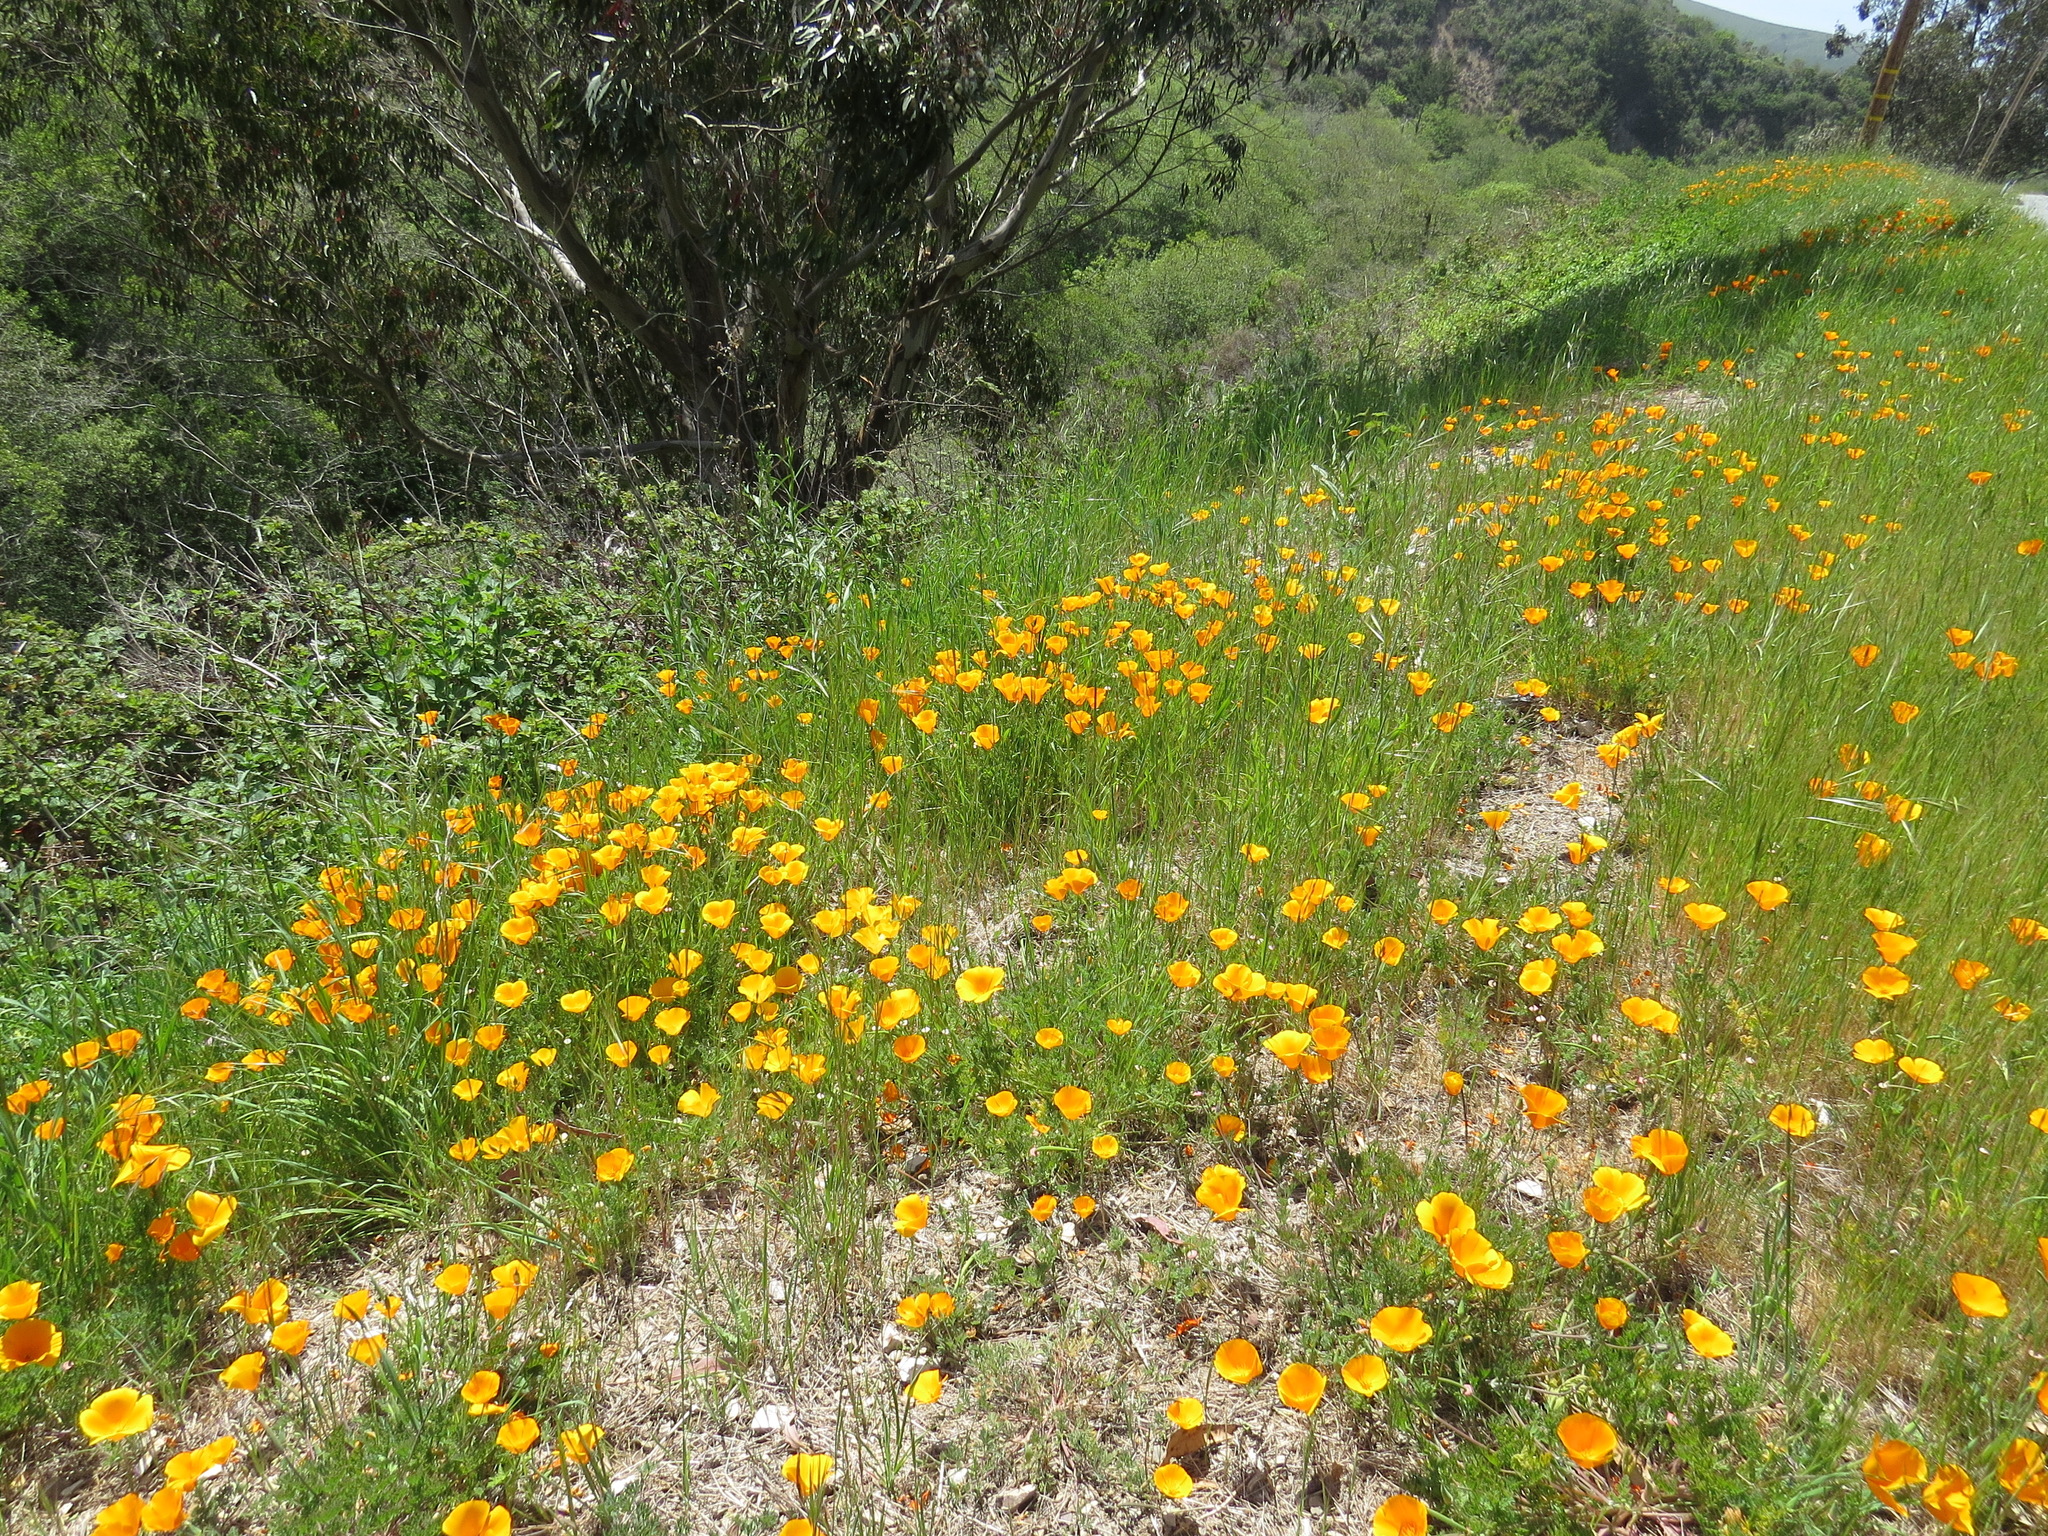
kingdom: Plantae
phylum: Tracheophyta
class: Magnoliopsida
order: Ranunculales
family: Papaveraceae
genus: Eschscholzia
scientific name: Eschscholzia californica
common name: California poppy
